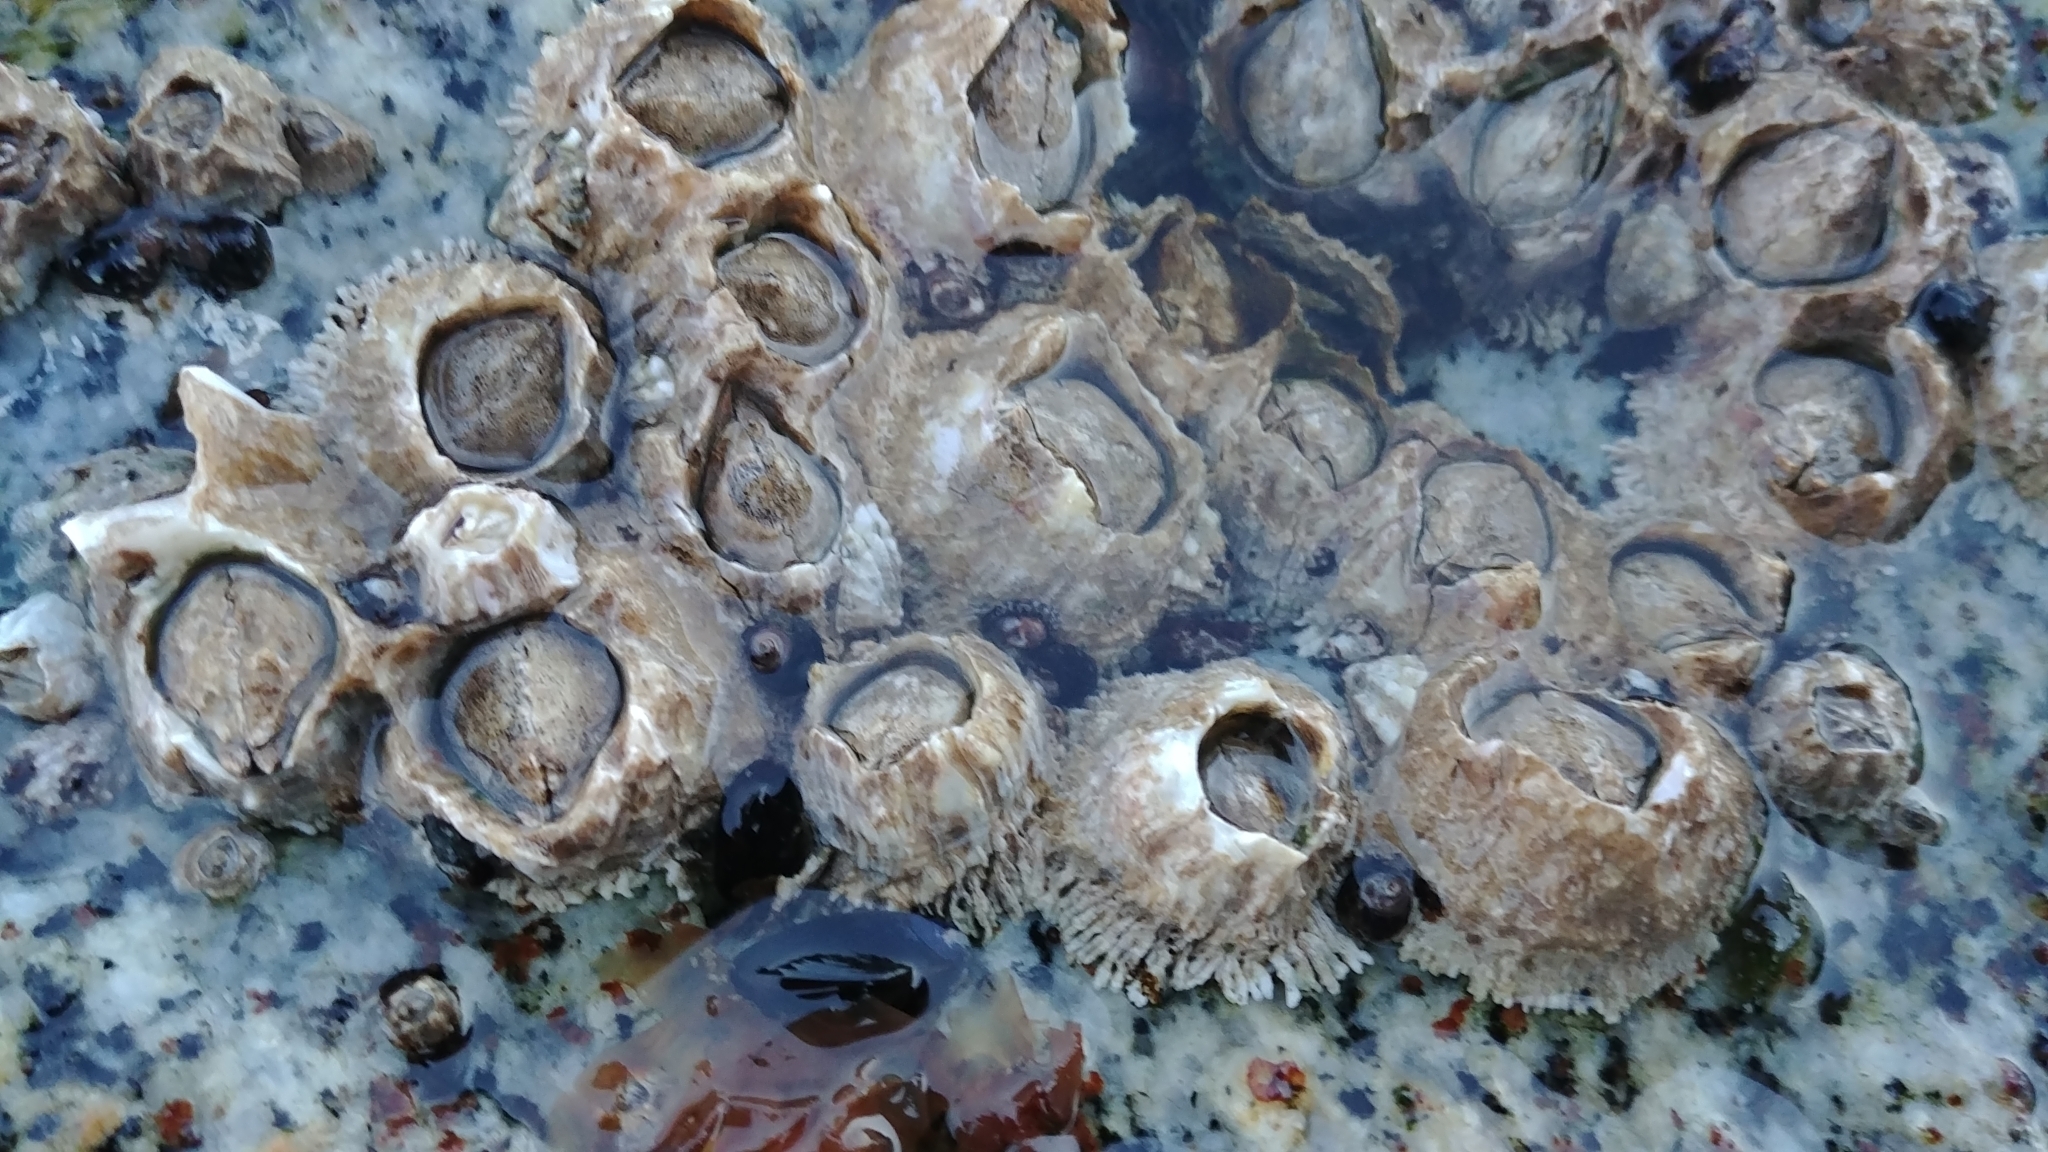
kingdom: Animalia
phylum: Arthropoda
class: Maxillopoda
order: Sessilia
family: Archaeobalanidae
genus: Semibalanus
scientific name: Semibalanus cariosus
